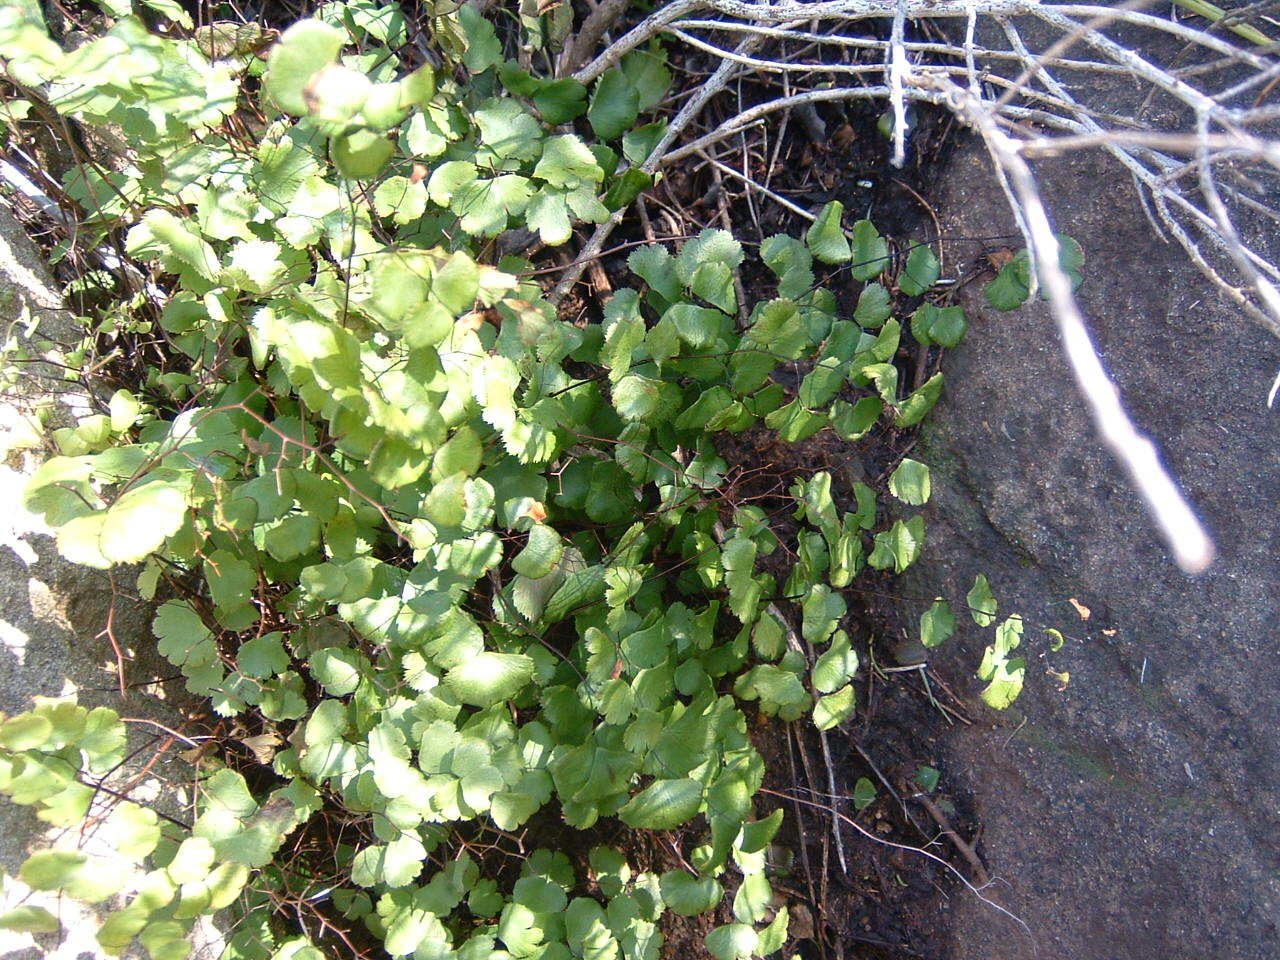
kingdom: Plantae
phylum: Tracheophyta
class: Polypodiopsida
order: Polypodiales
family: Pteridaceae
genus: Adiantum
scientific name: Adiantum jordanii
